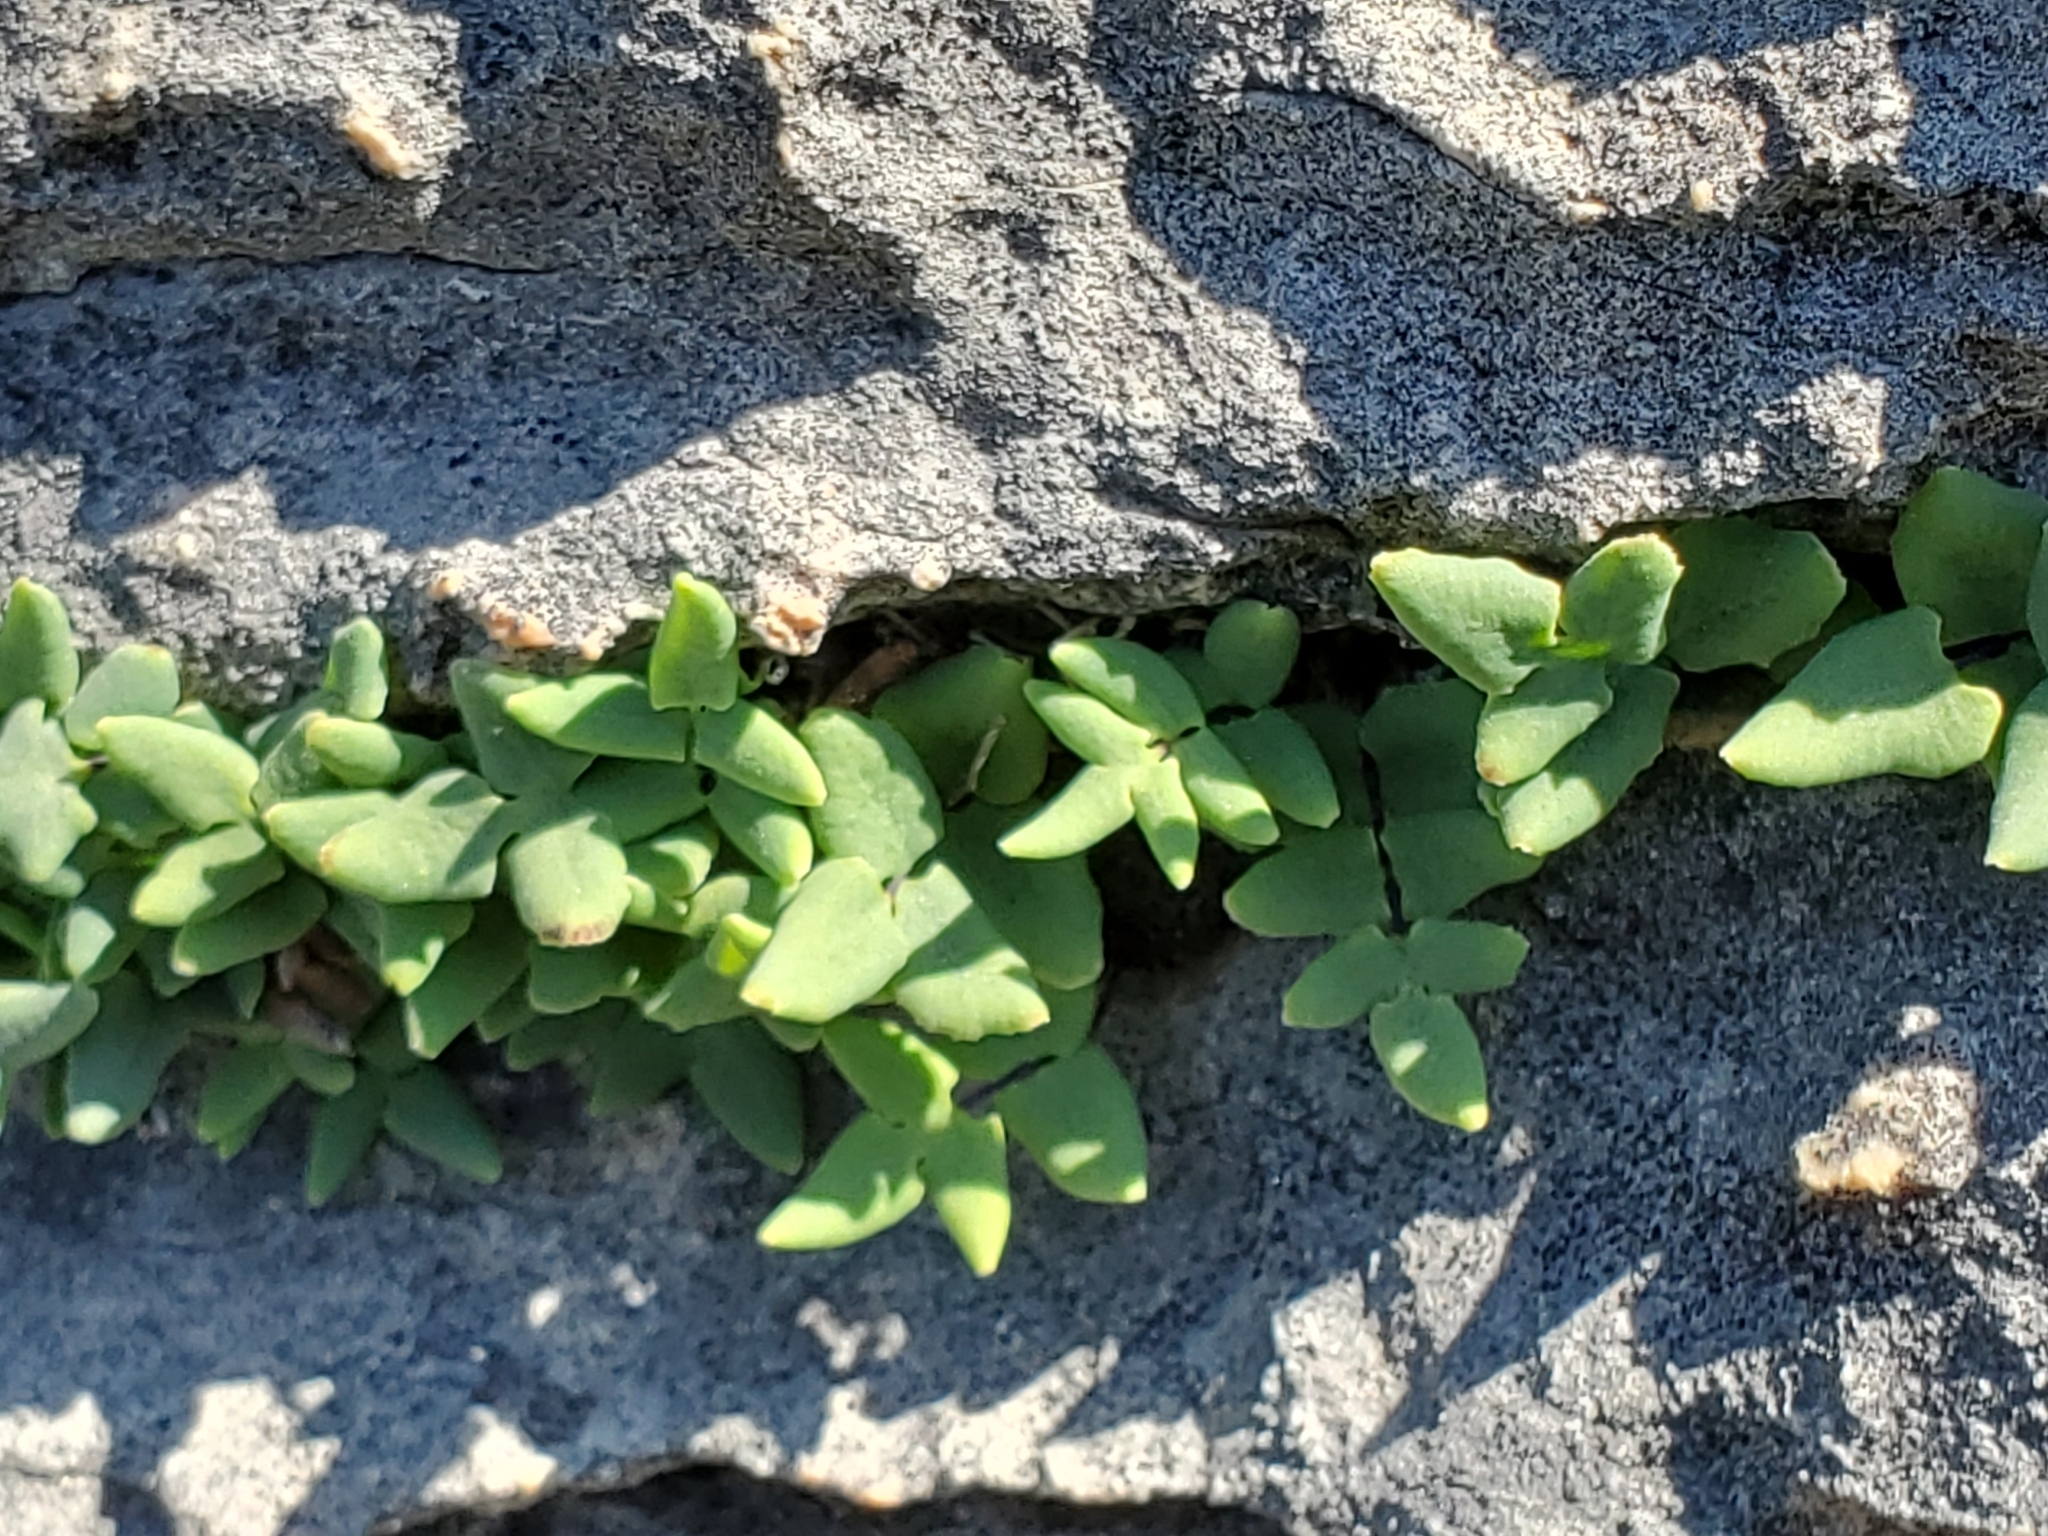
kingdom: Plantae
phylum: Tracheophyta
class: Polypodiopsida
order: Polypodiales
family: Pteridaceae
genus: Pellaea
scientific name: Pellaea glabella
